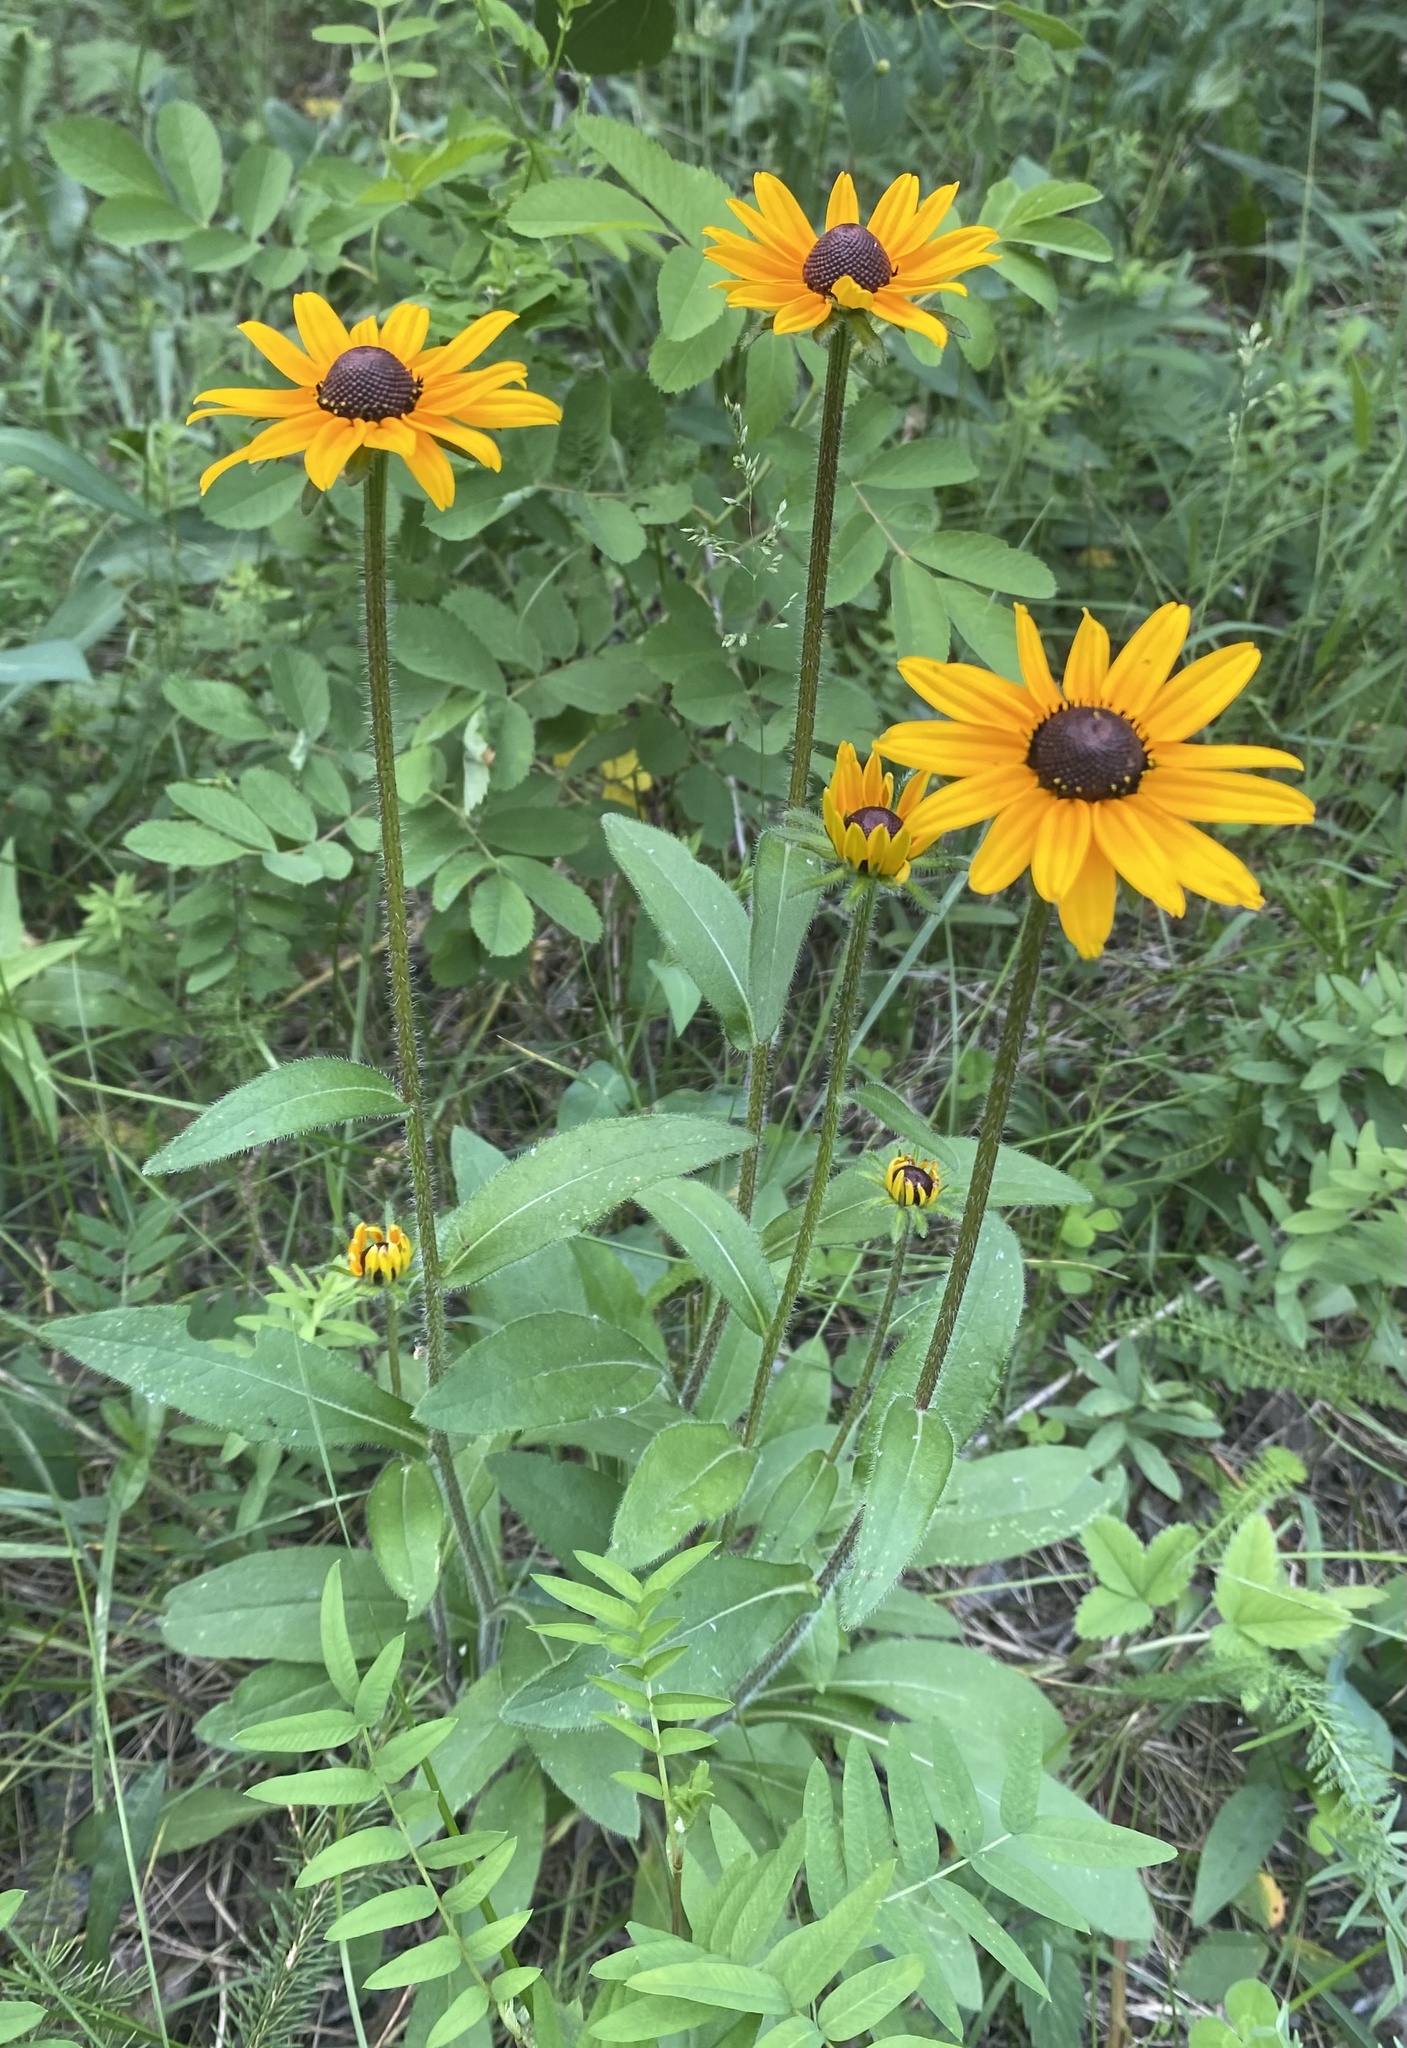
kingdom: Plantae
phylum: Tracheophyta
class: Magnoliopsida
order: Asterales
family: Asteraceae
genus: Rudbeckia
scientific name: Rudbeckia hirta
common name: Black-eyed-susan
